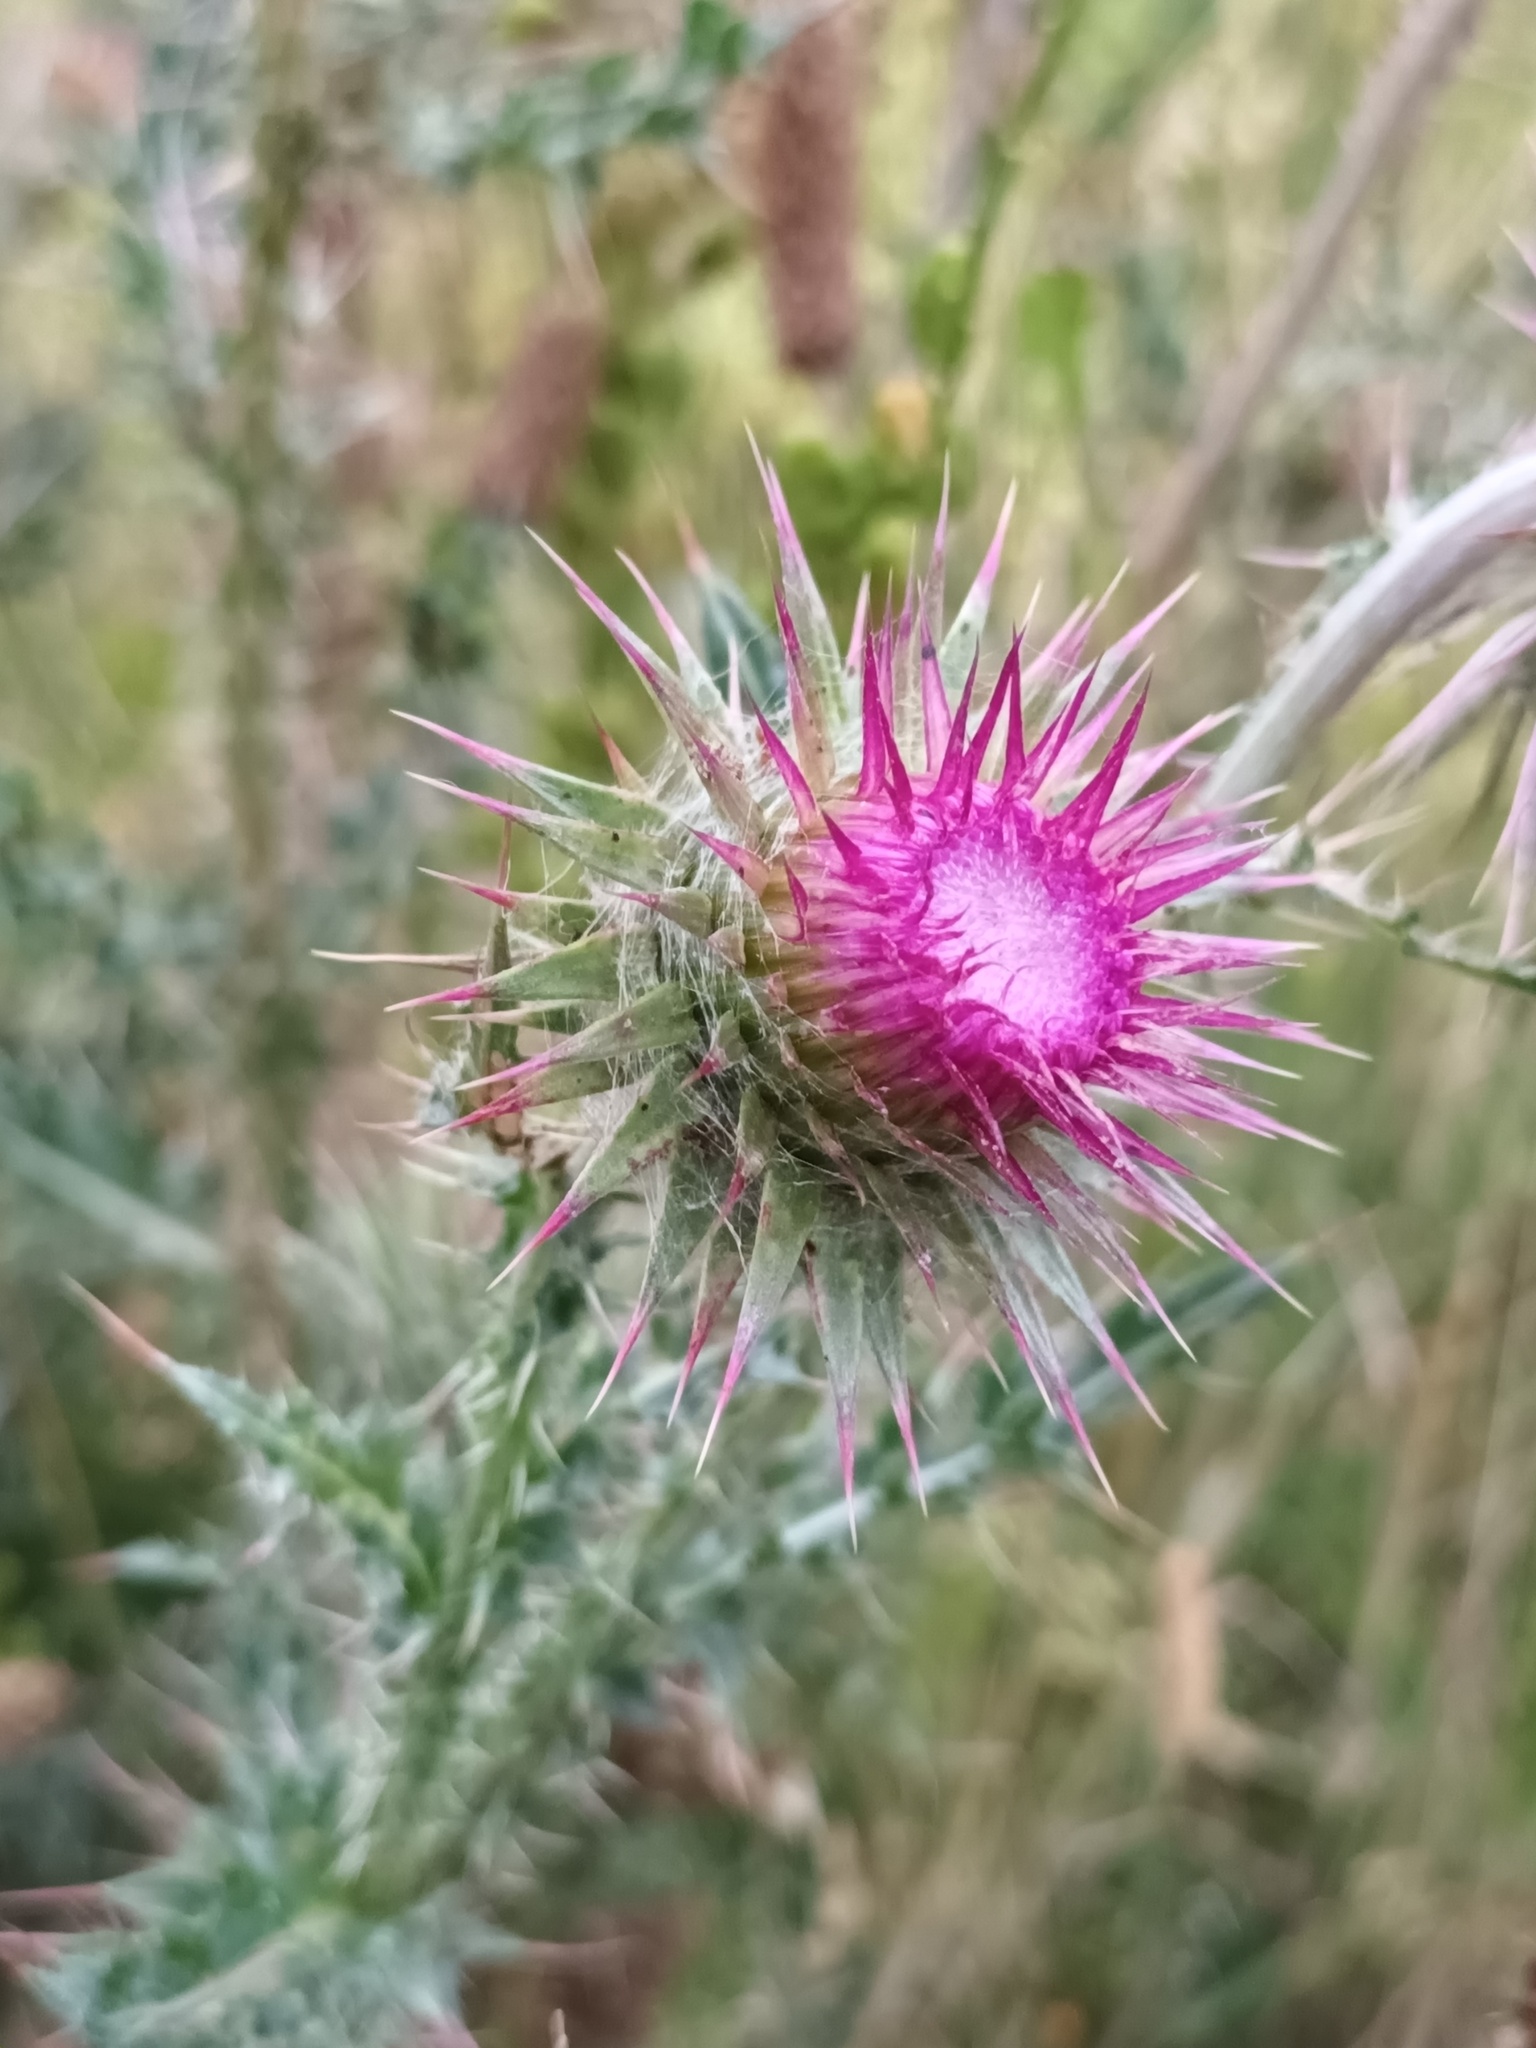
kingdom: Plantae
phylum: Tracheophyta
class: Magnoliopsida
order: Asterales
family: Asteraceae
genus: Carduus
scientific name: Carduus nutans
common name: Musk thistle
